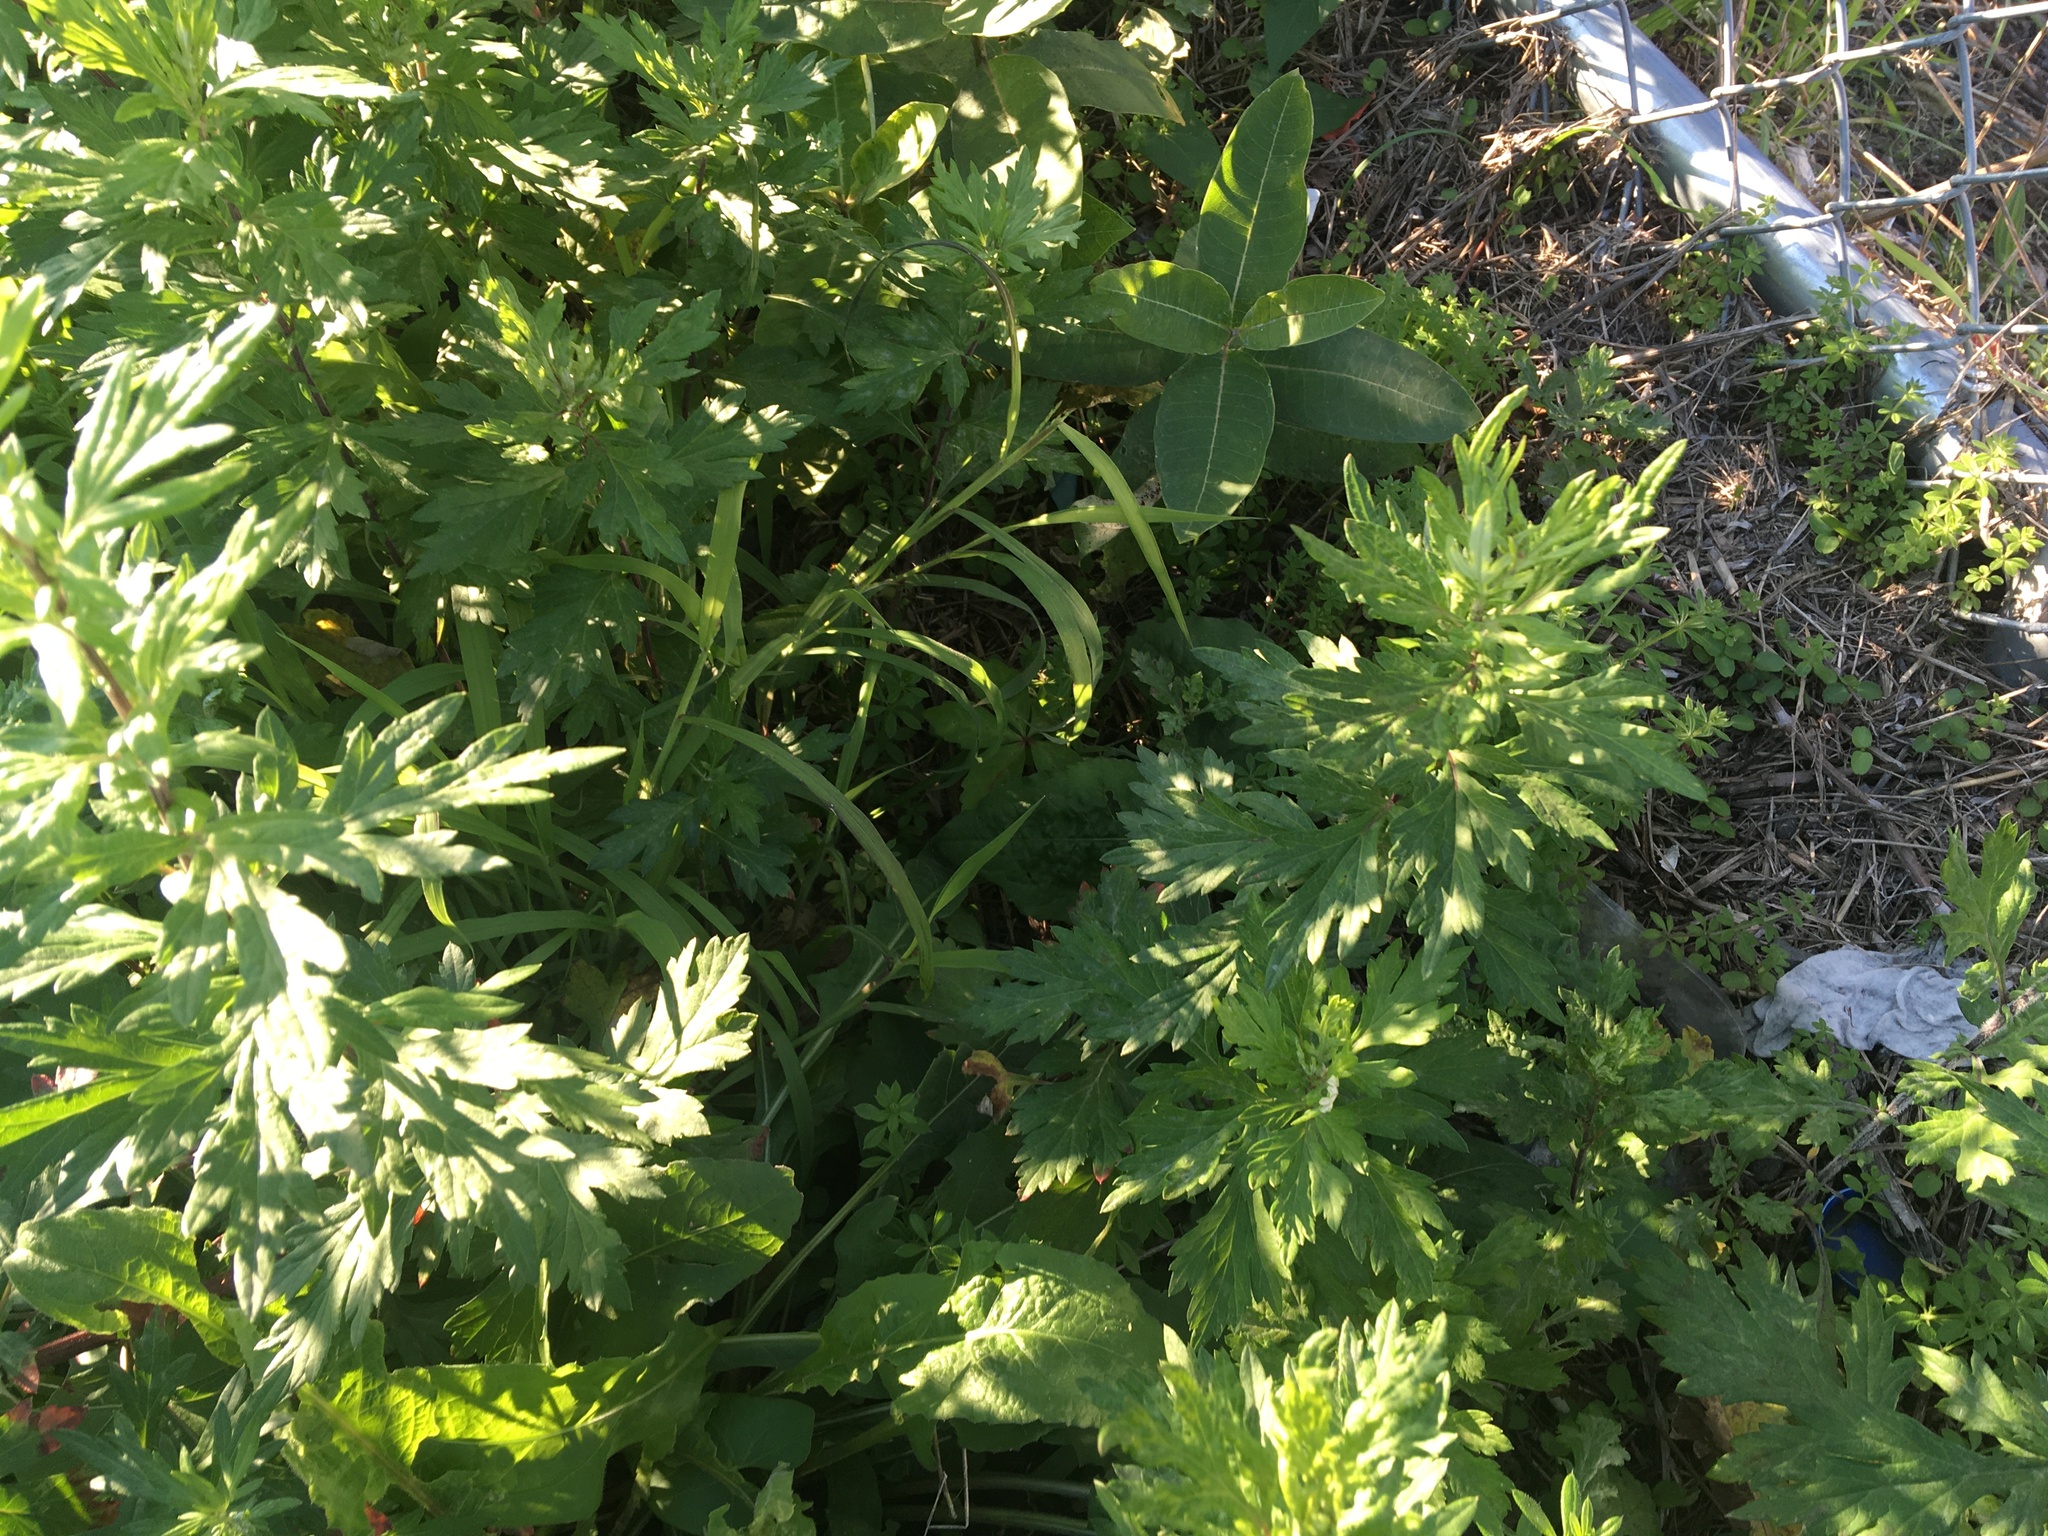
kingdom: Plantae
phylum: Tracheophyta
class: Magnoliopsida
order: Asterales
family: Asteraceae
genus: Artemisia
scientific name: Artemisia vulgaris
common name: Mugwort
